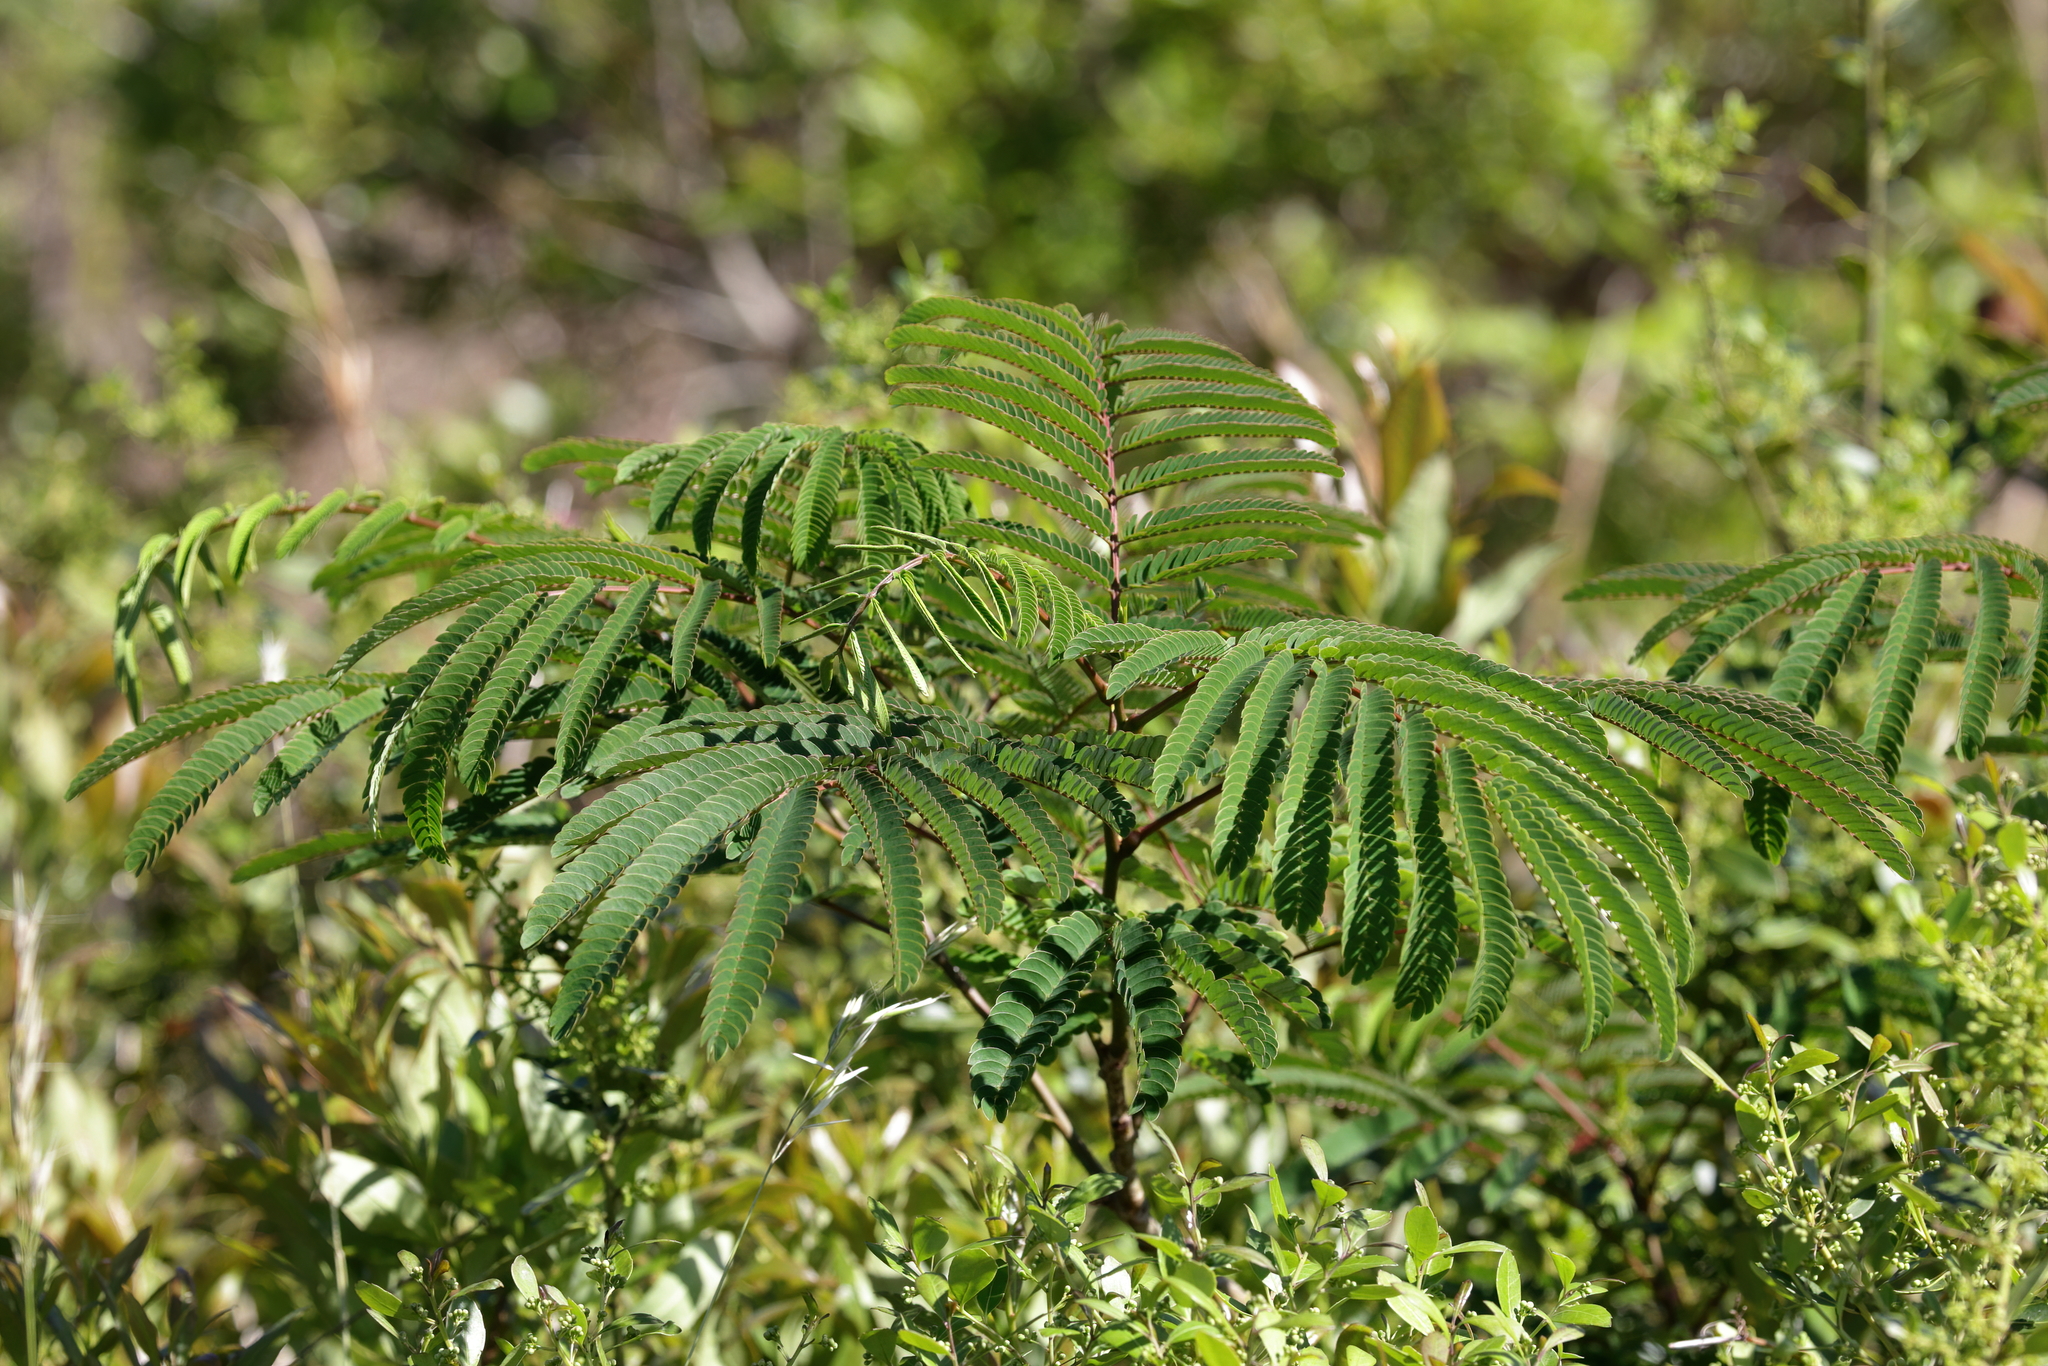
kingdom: Plantae
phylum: Tracheophyta
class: Magnoliopsida
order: Fabales
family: Fabaceae
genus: Albizia
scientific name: Albizia julibrissin
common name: Silktree
